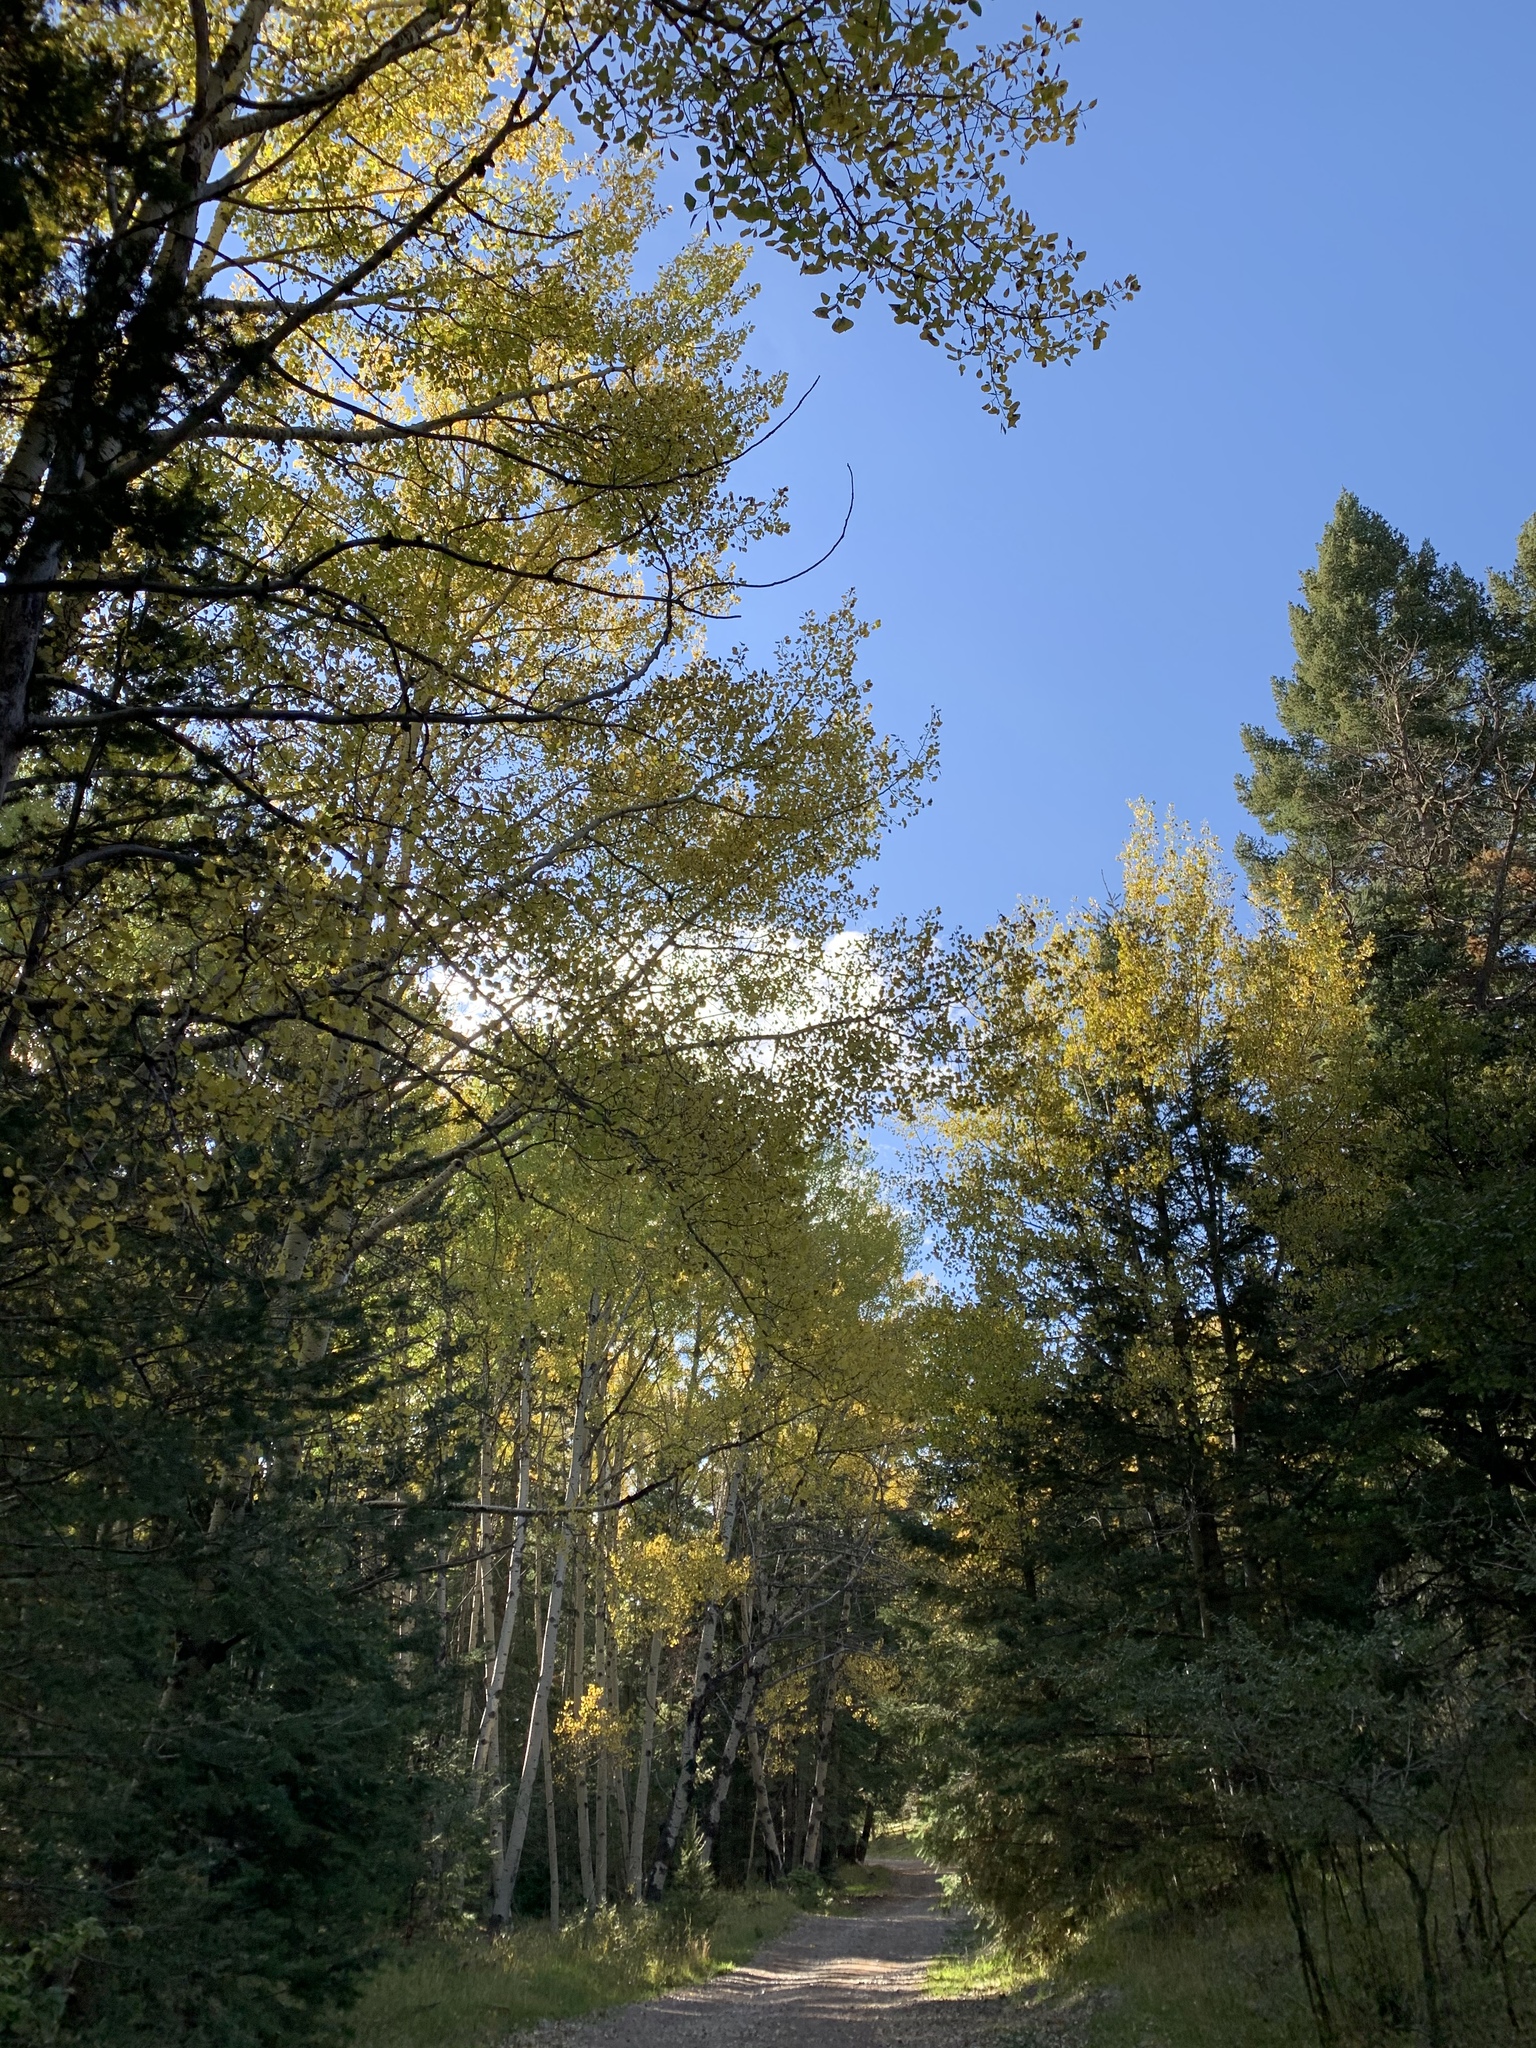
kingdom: Plantae
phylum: Tracheophyta
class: Magnoliopsida
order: Malpighiales
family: Salicaceae
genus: Populus
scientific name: Populus tremuloides
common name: Quaking aspen
